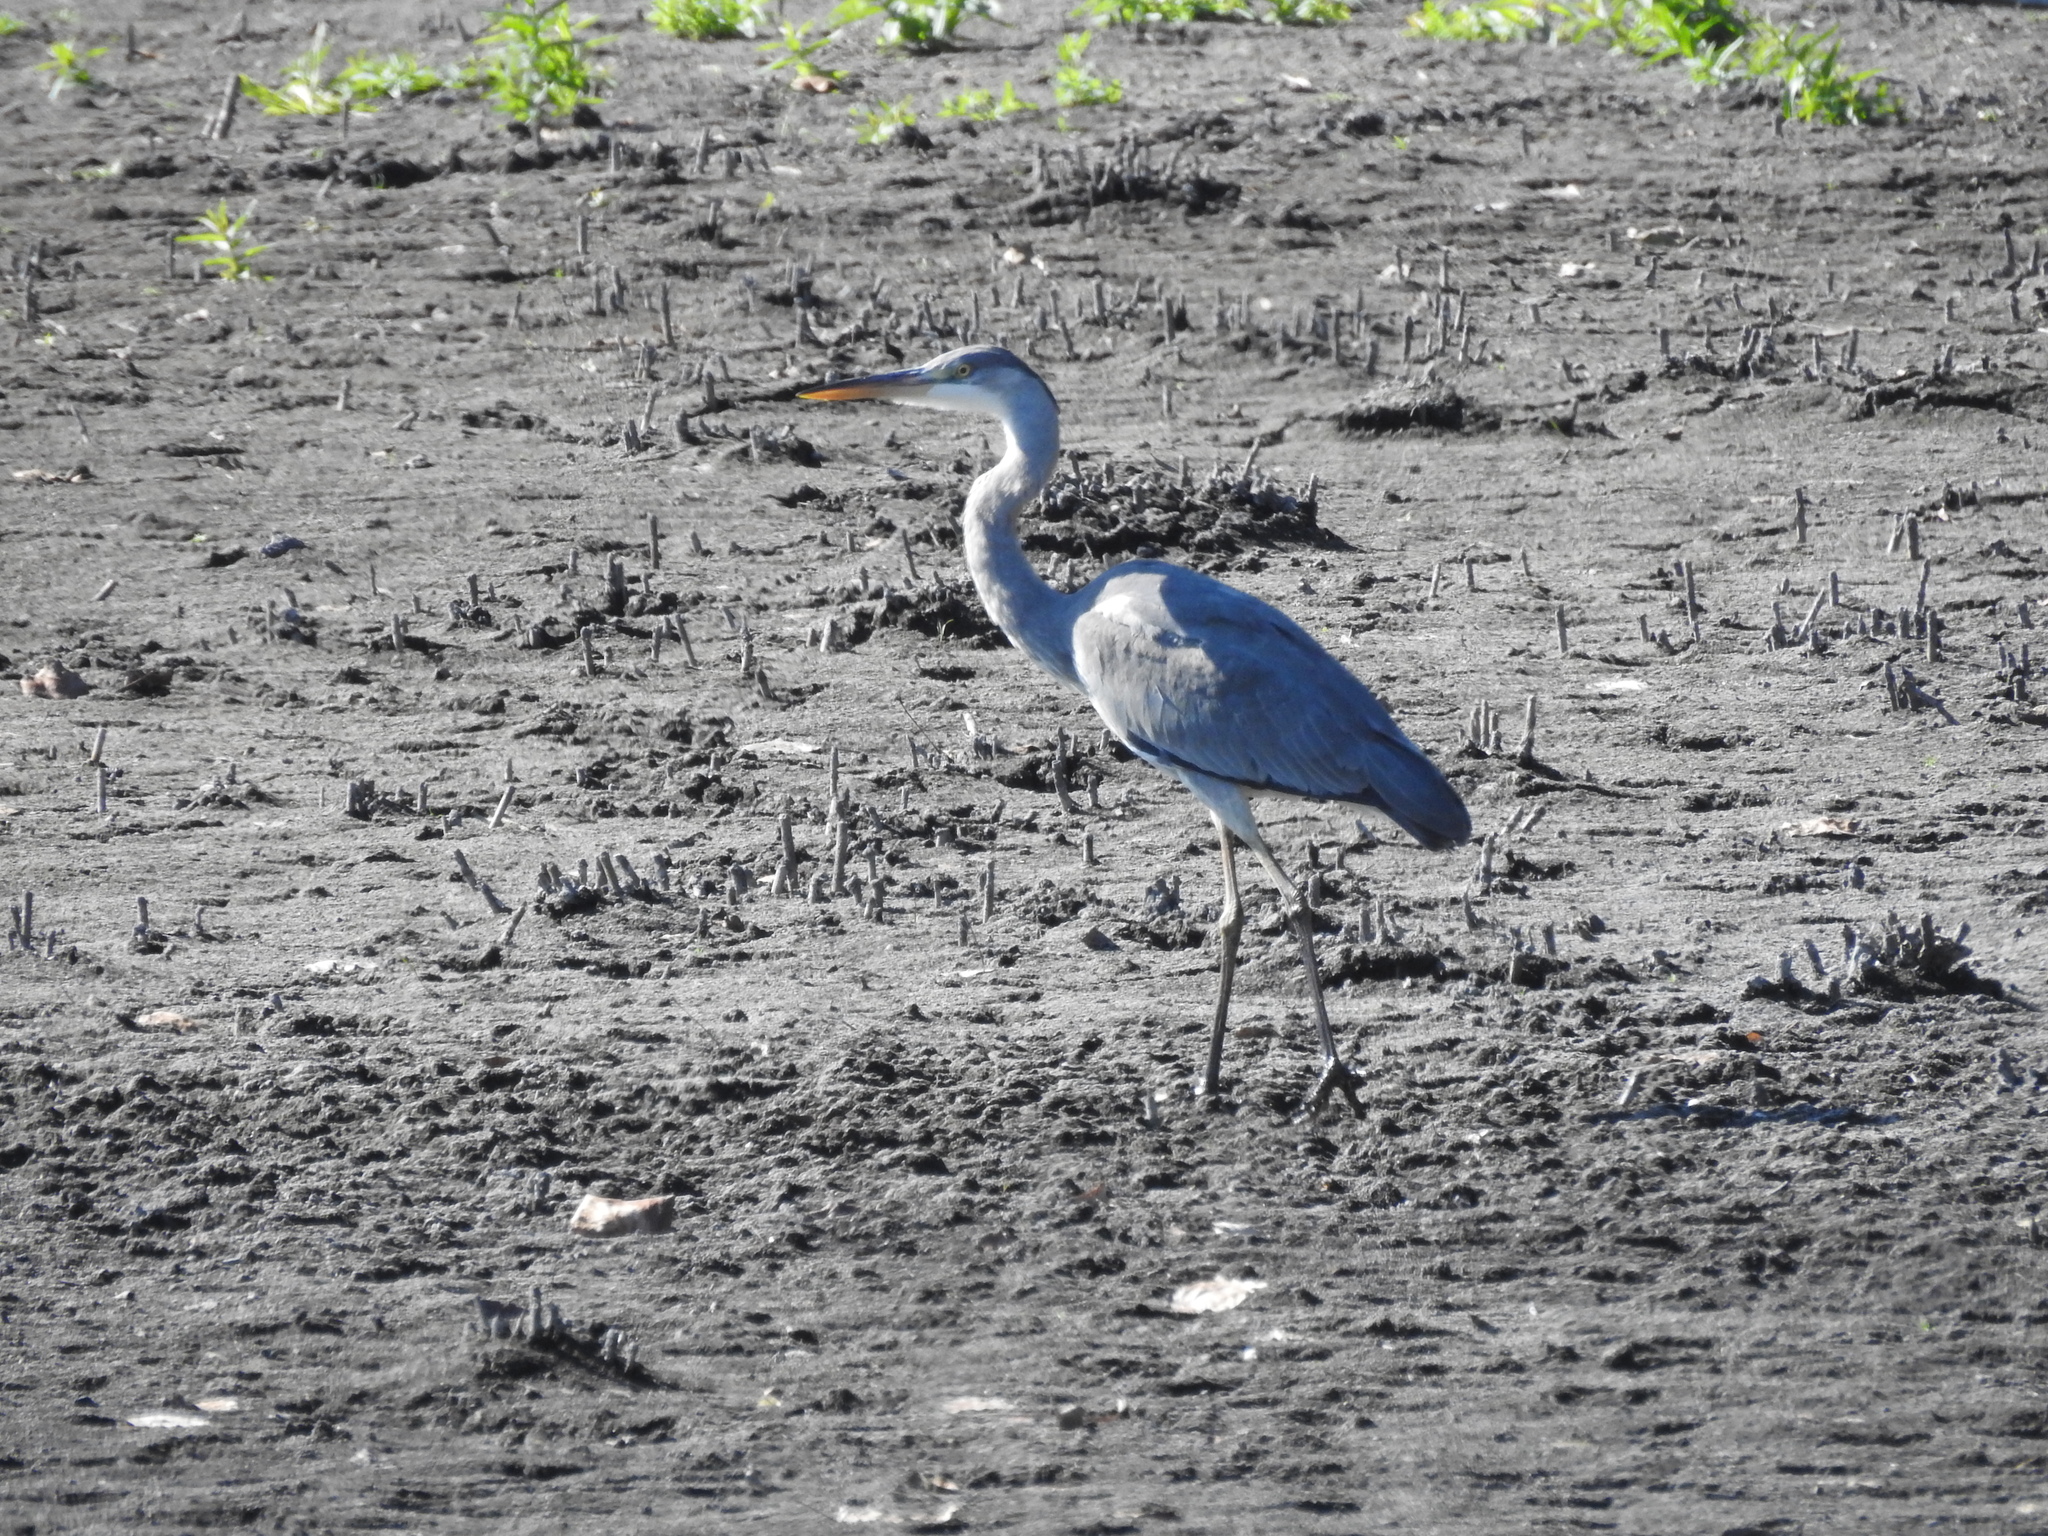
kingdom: Animalia
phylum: Chordata
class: Aves
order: Pelecaniformes
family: Ardeidae
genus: Ardea
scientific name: Ardea cinerea
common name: Grey heron
